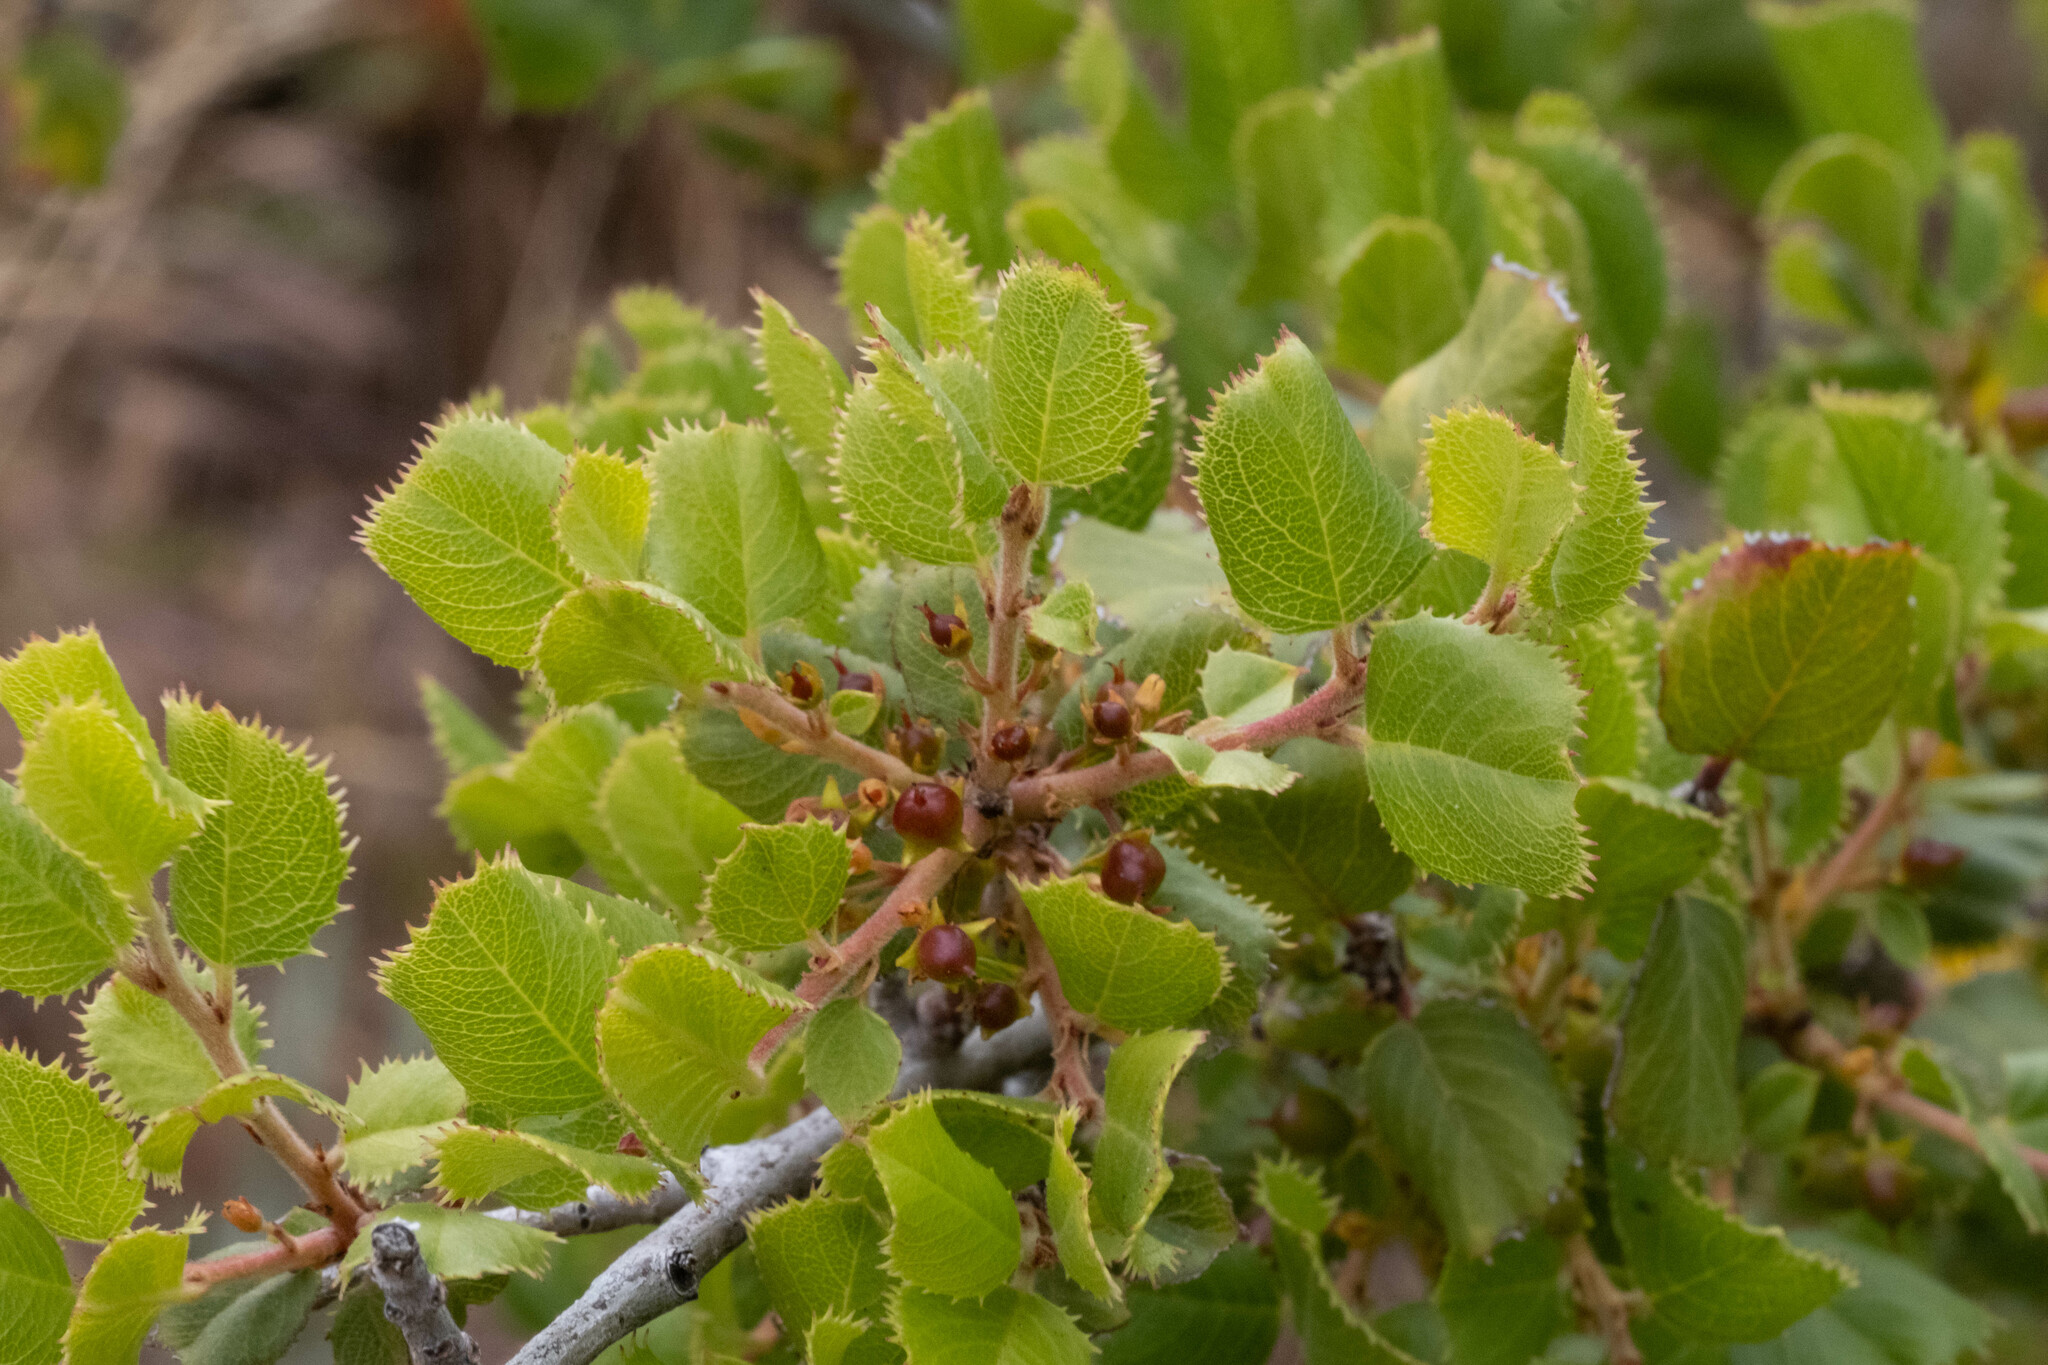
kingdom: Plantae
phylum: Tracheophyta
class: Magnoliopsida
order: Rosales
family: Rhamnaceae
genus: Endotropis
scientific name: Endotropis crocea
